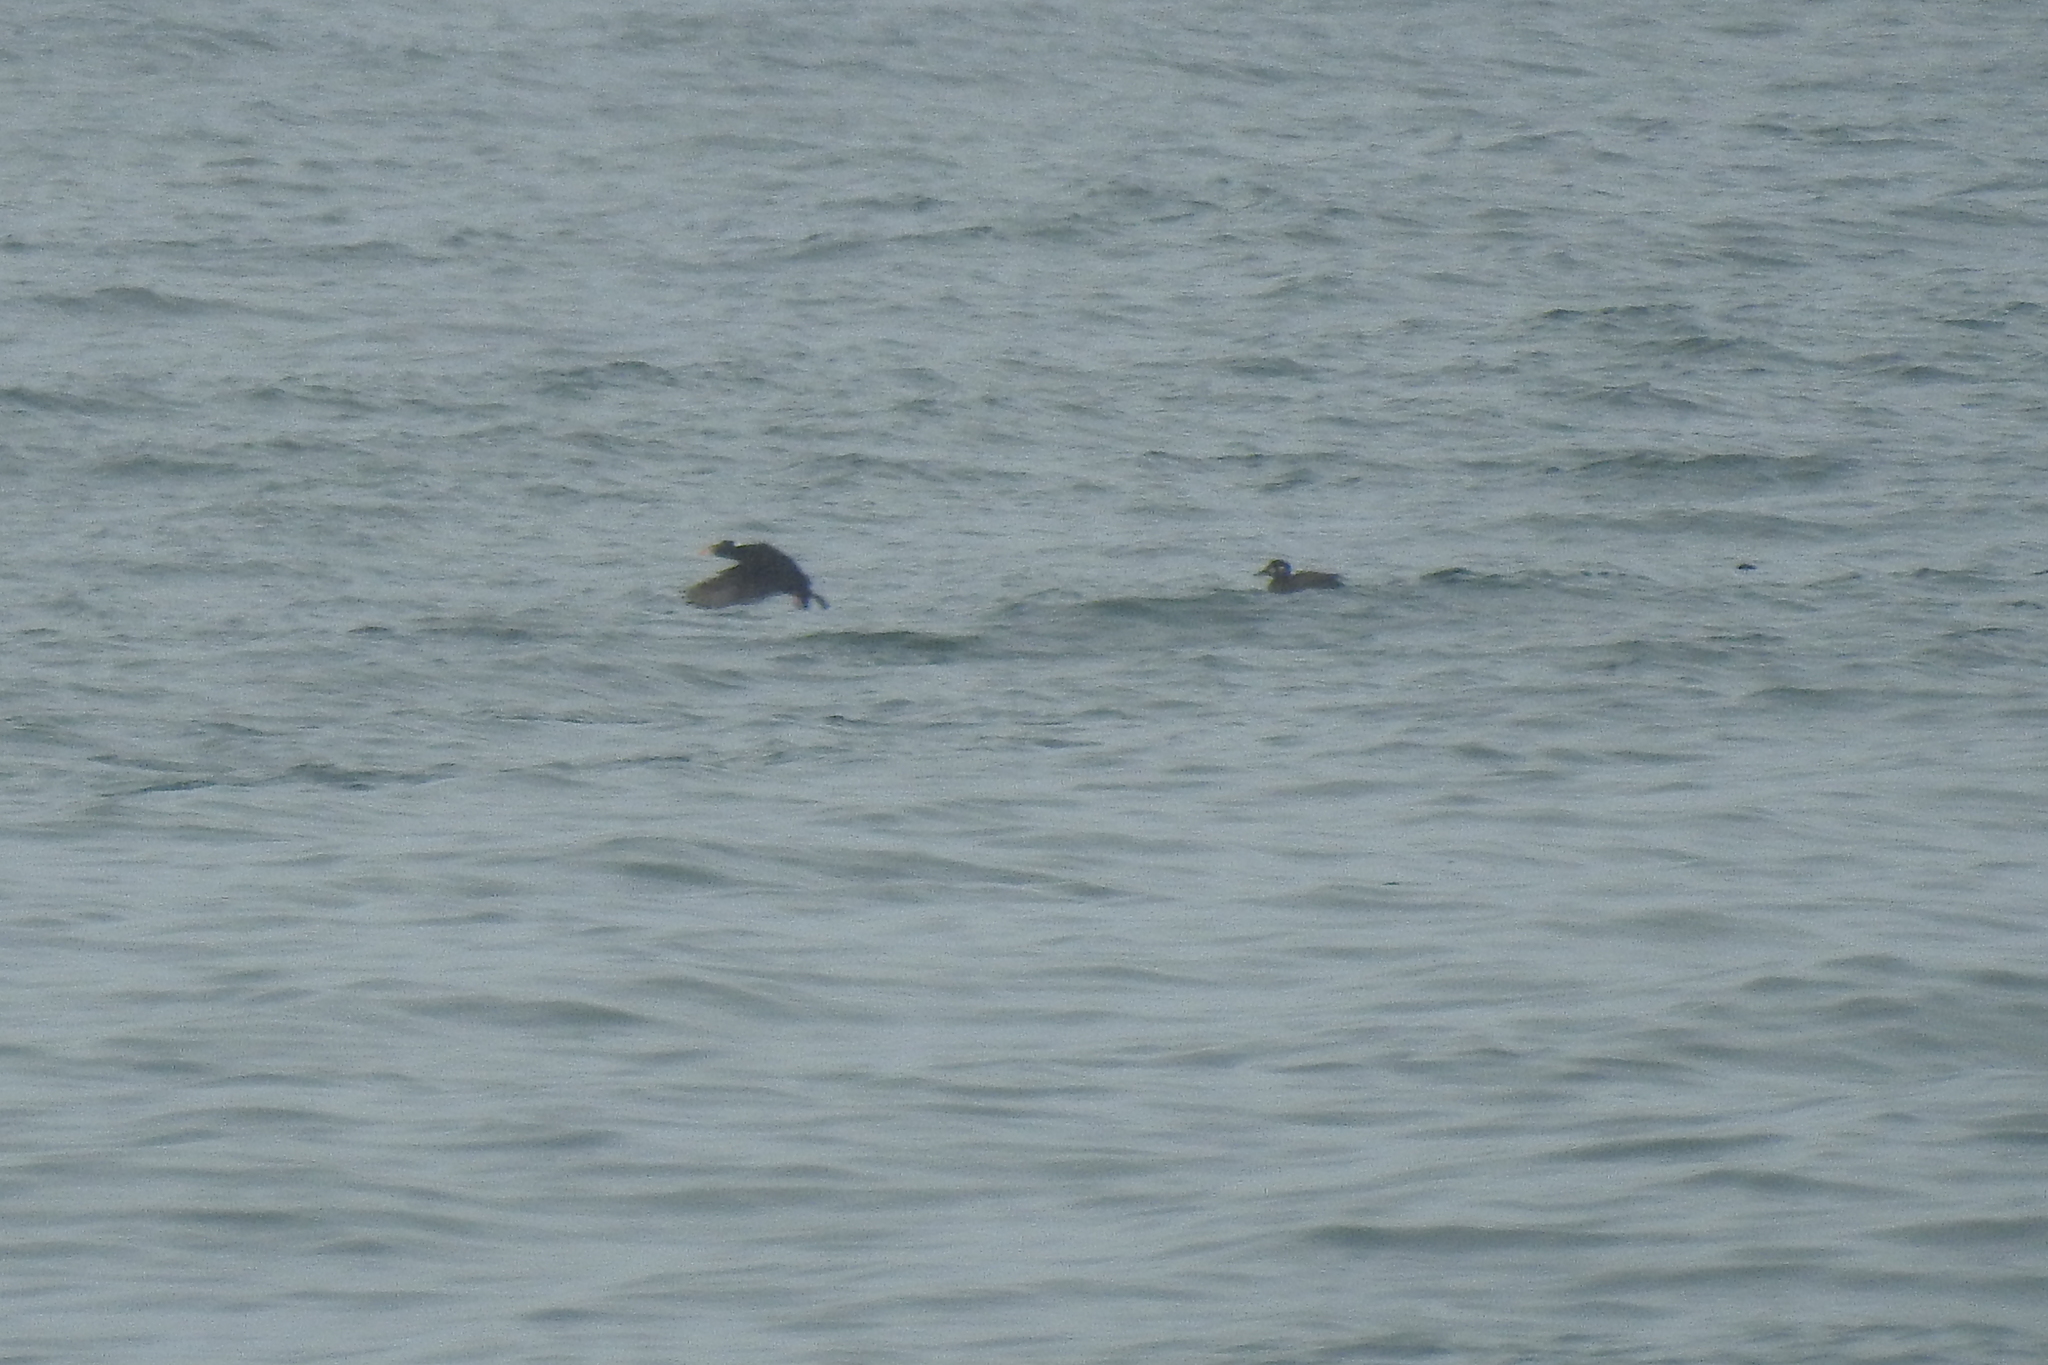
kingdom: Animalia
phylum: Chordata
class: Aves
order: Anseriformes
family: Anatidae
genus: Melanitta
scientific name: Melanitta perspicillata
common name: Surf scoter
